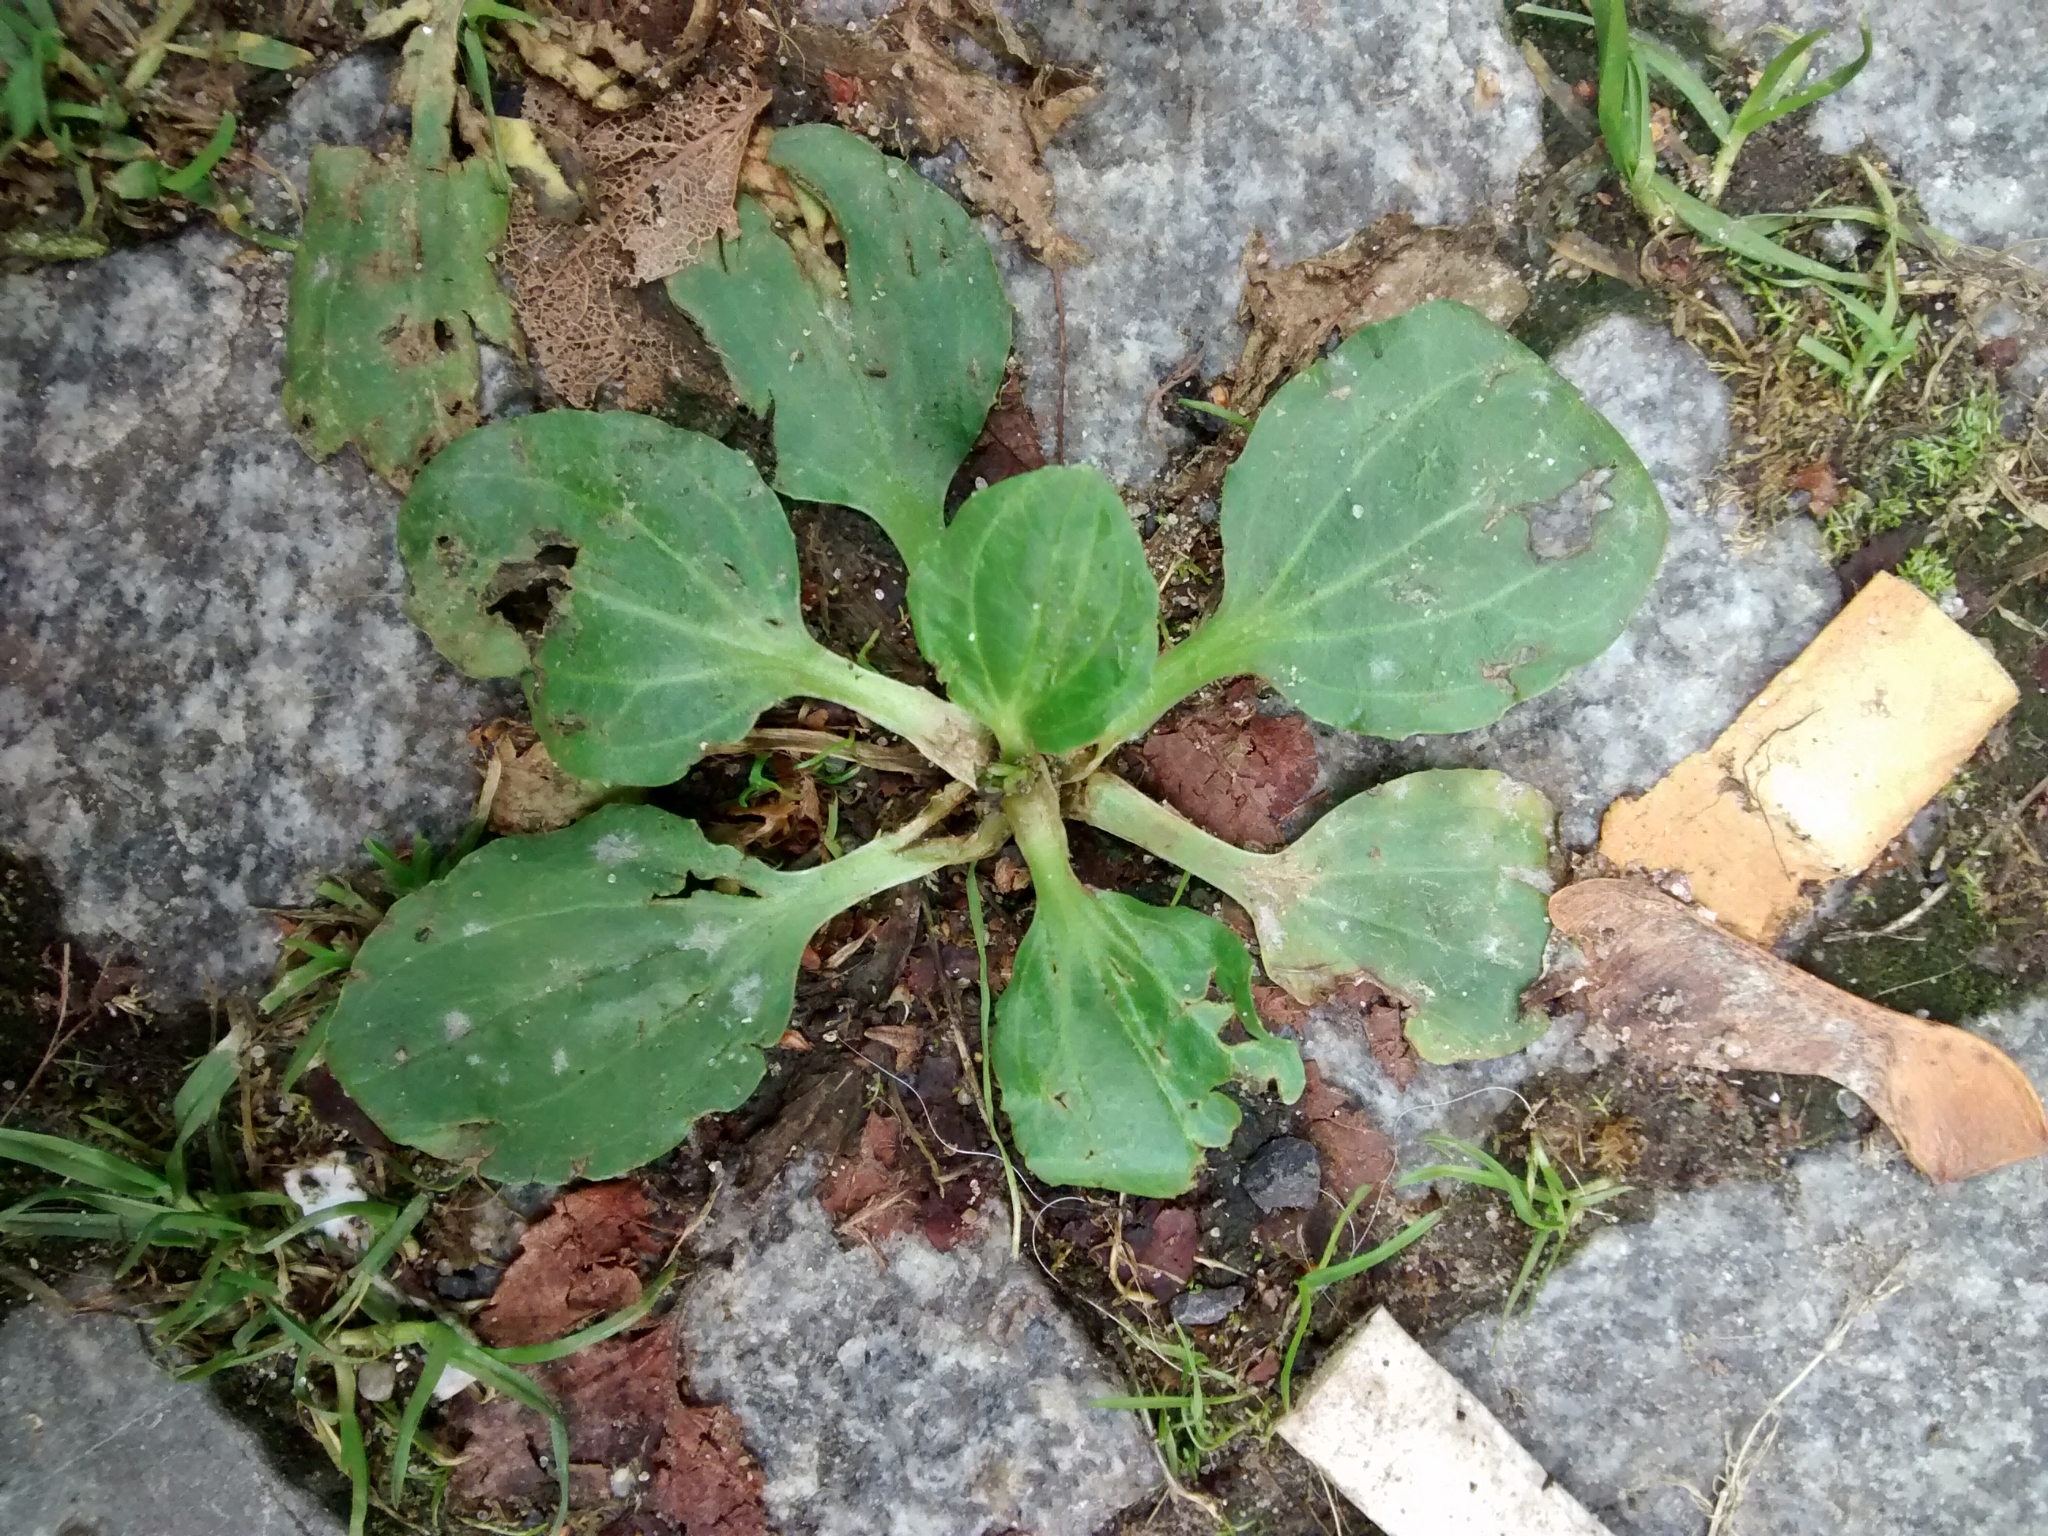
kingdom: Plantae
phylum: Tracheophyta
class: Magnoliopsida
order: Lamiales
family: Plantaginaceae
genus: Plantago
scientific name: Plantago major
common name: Common plantain
